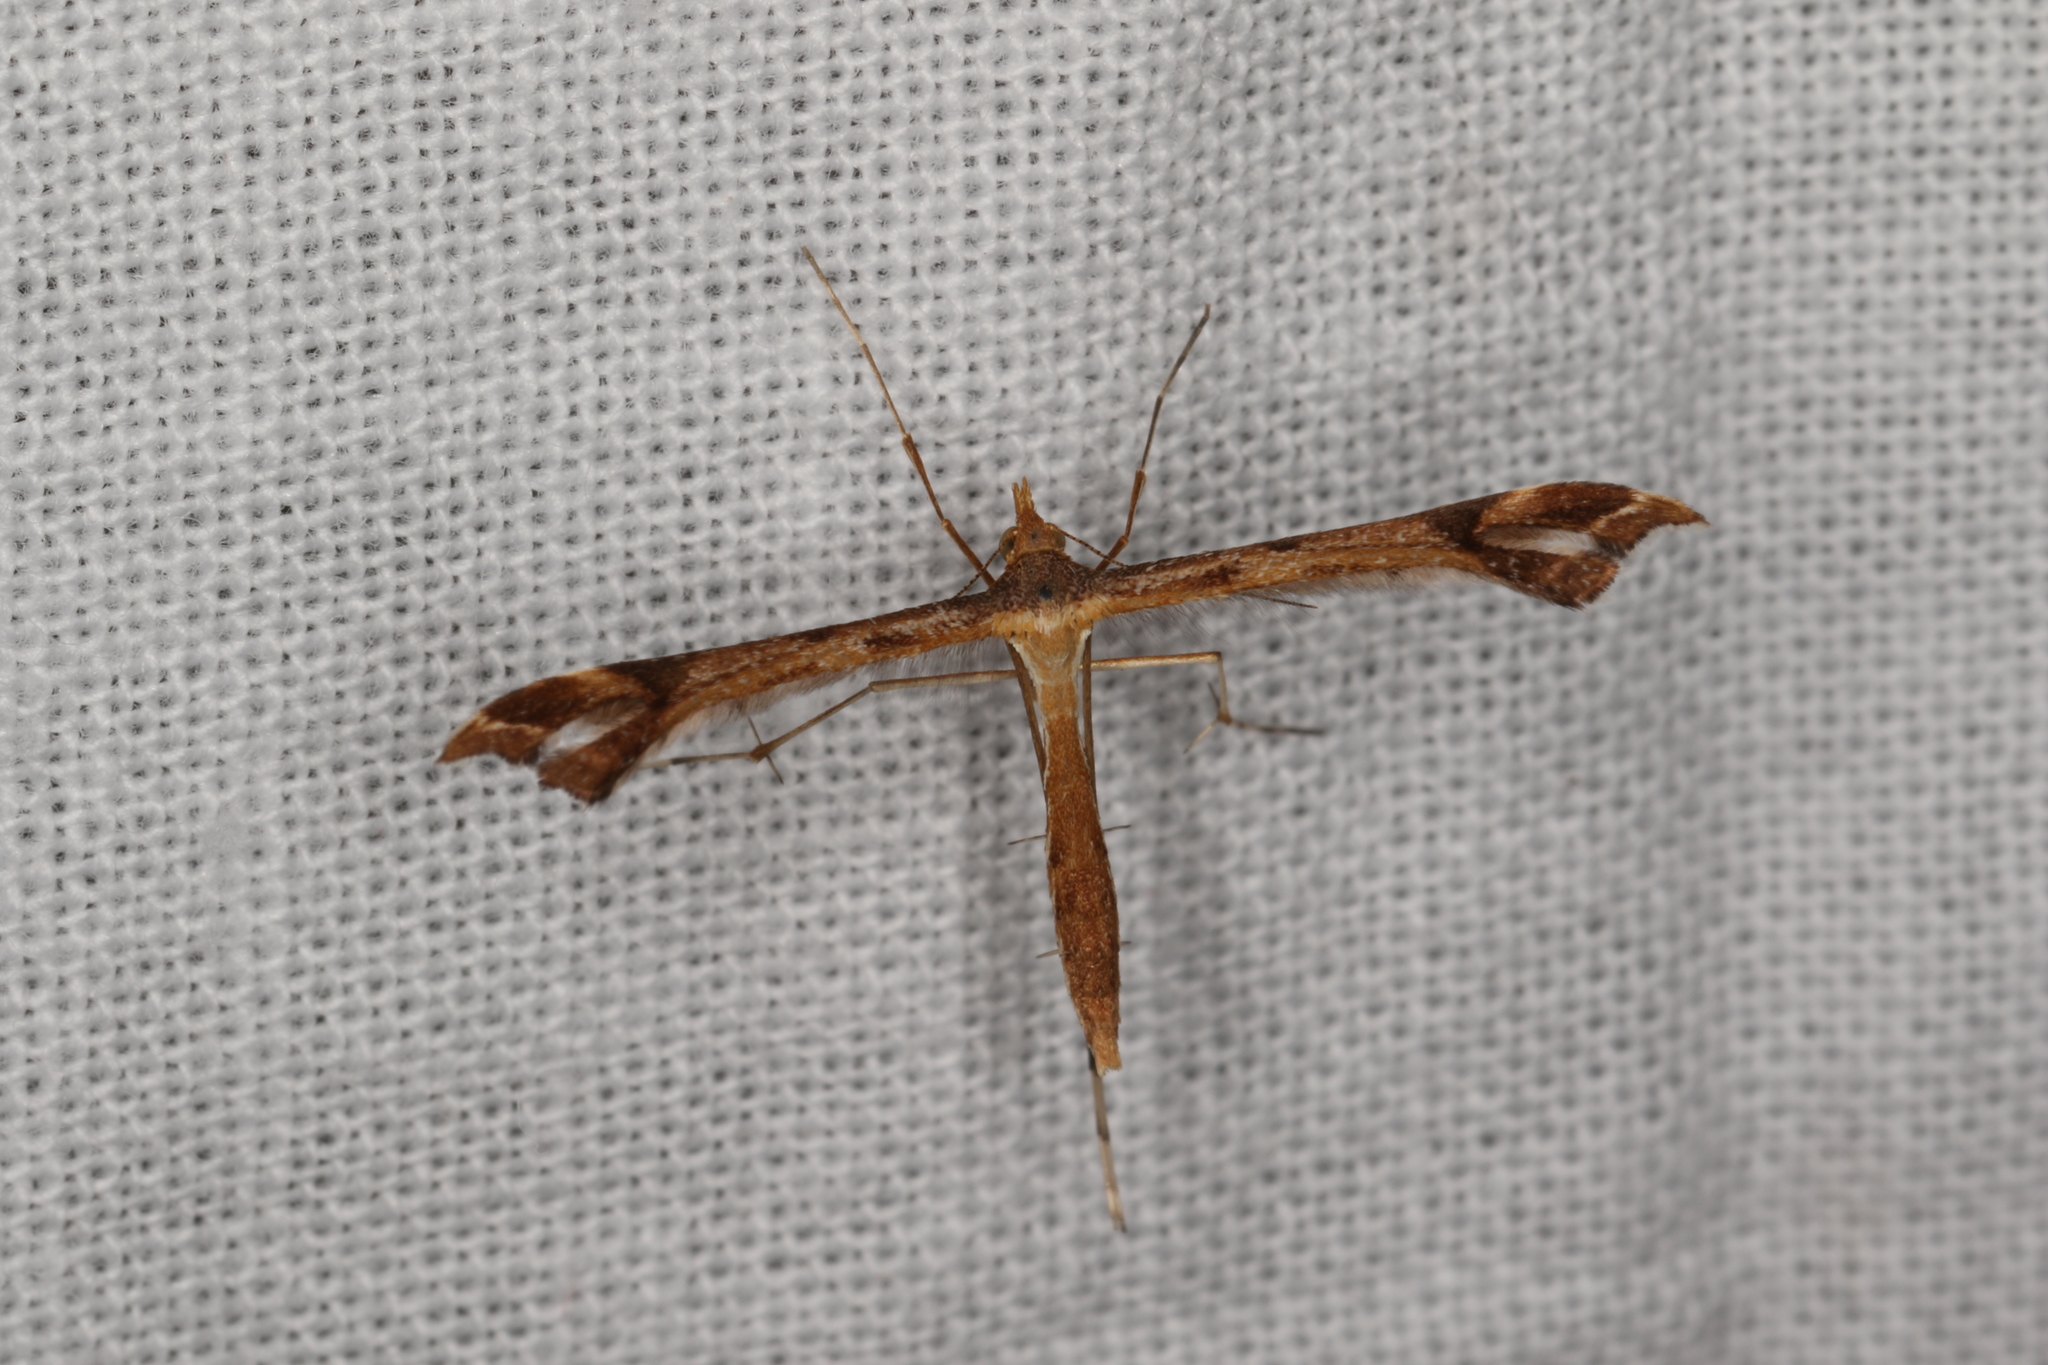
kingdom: Animalia
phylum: Arthropoda
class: Insecta
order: Lepidoptera
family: Pterophoridae
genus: Sinpunctiptilia
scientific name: Sinpunctiptilia emissalis
